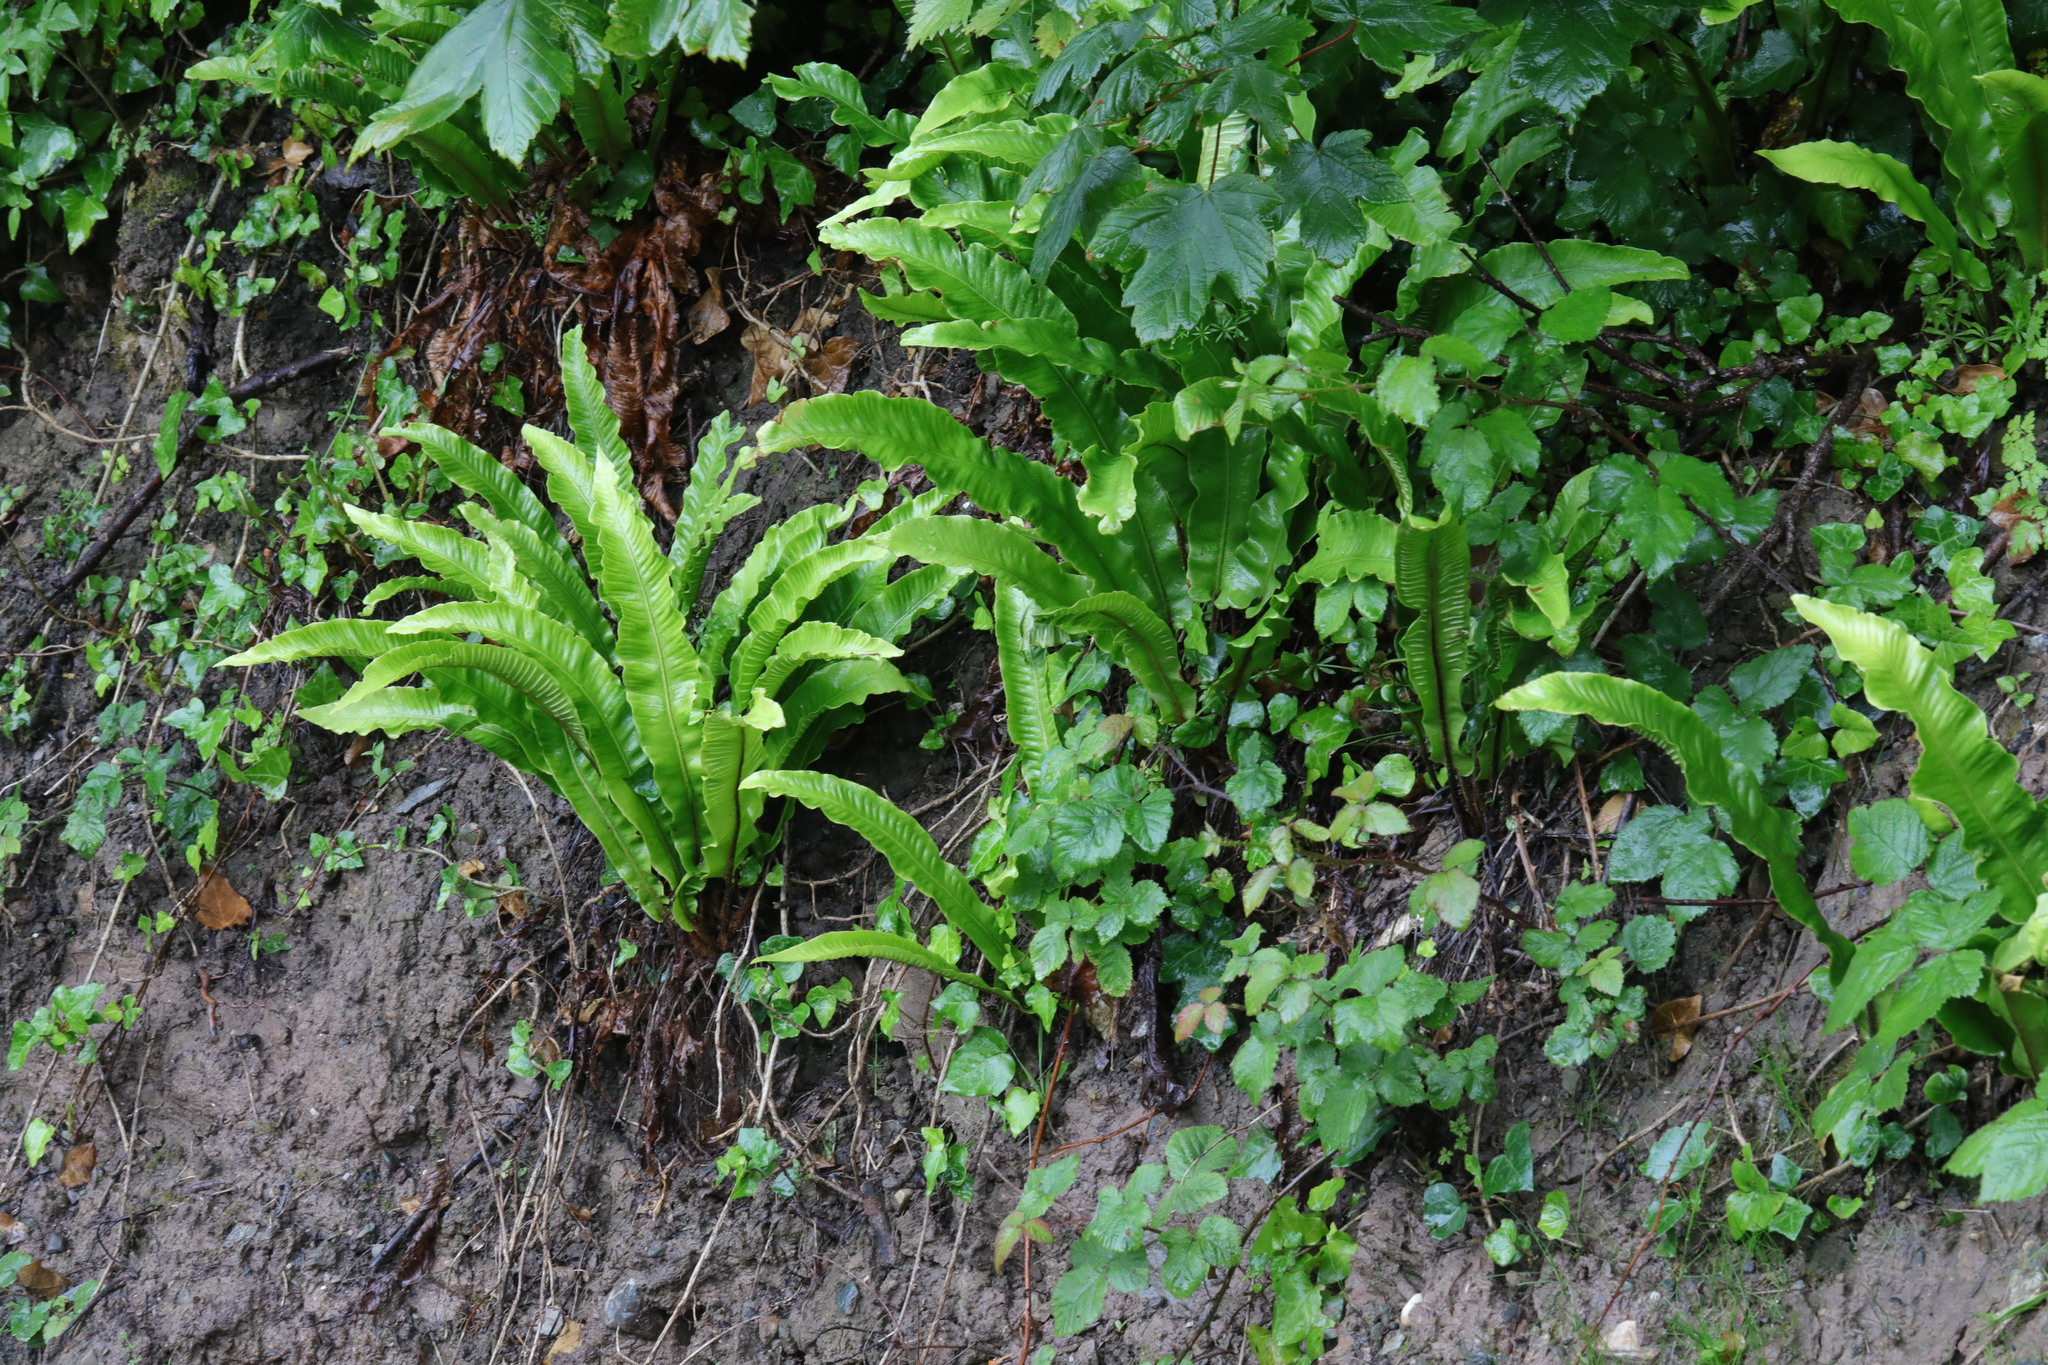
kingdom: Plantae
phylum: Tracheophyta
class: Polypodiopsida
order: Polypodiales
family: Aspleniaceae
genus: Asplenium
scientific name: Asplenium scolopendrium
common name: Hart's-tongue fern
